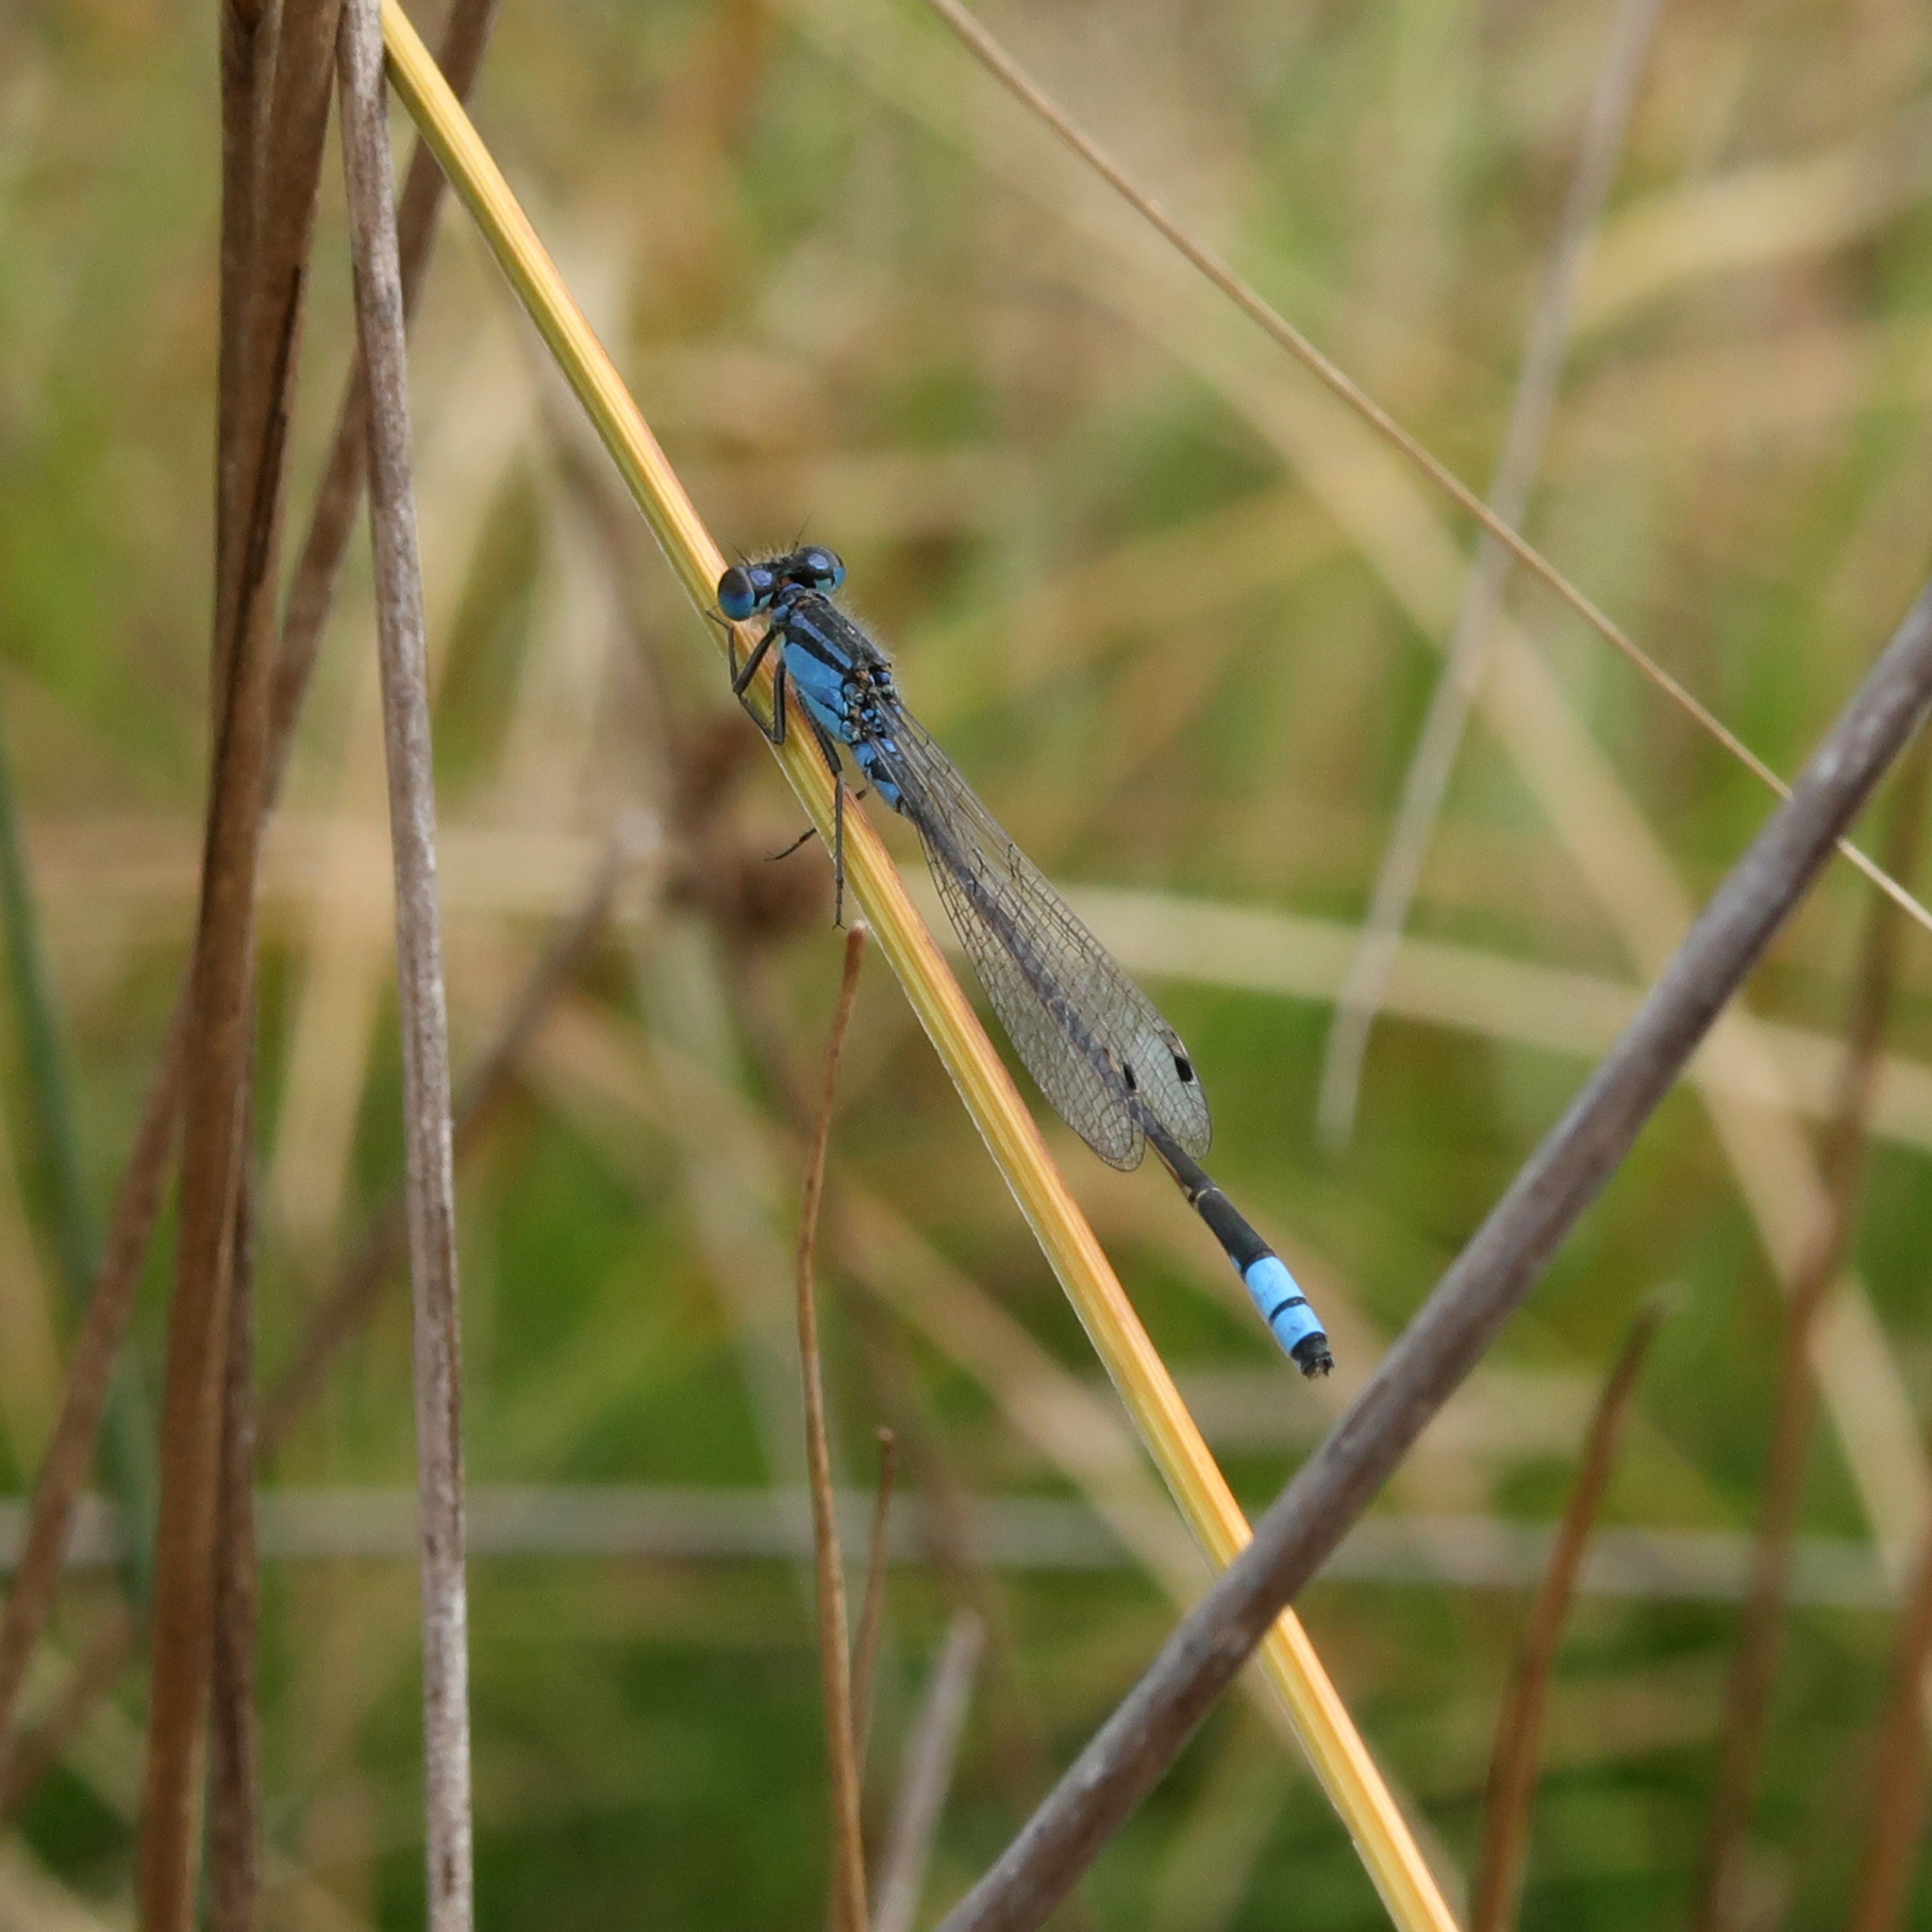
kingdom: Animalia
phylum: Arthropoda
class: Insecta
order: Odonata
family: Coenagrionidae
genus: Ischnura
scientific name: Ischnura heterosticta
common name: Common bluetail
